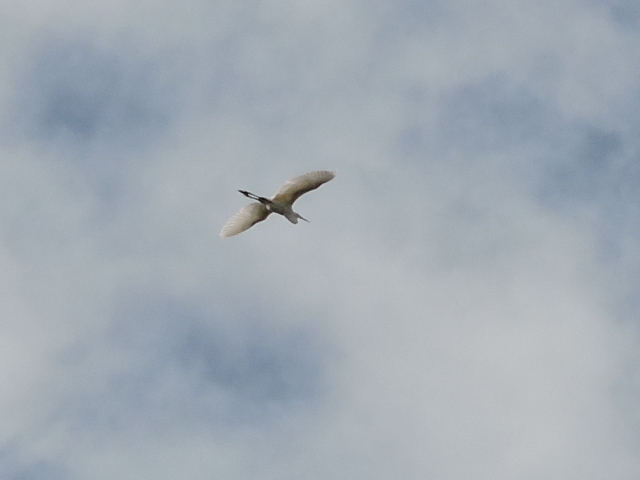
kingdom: Animalia
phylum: Chordata
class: Aves
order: Pelecaniformes
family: Ardeidae
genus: Ardea
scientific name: Ardea alba
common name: Great egret
